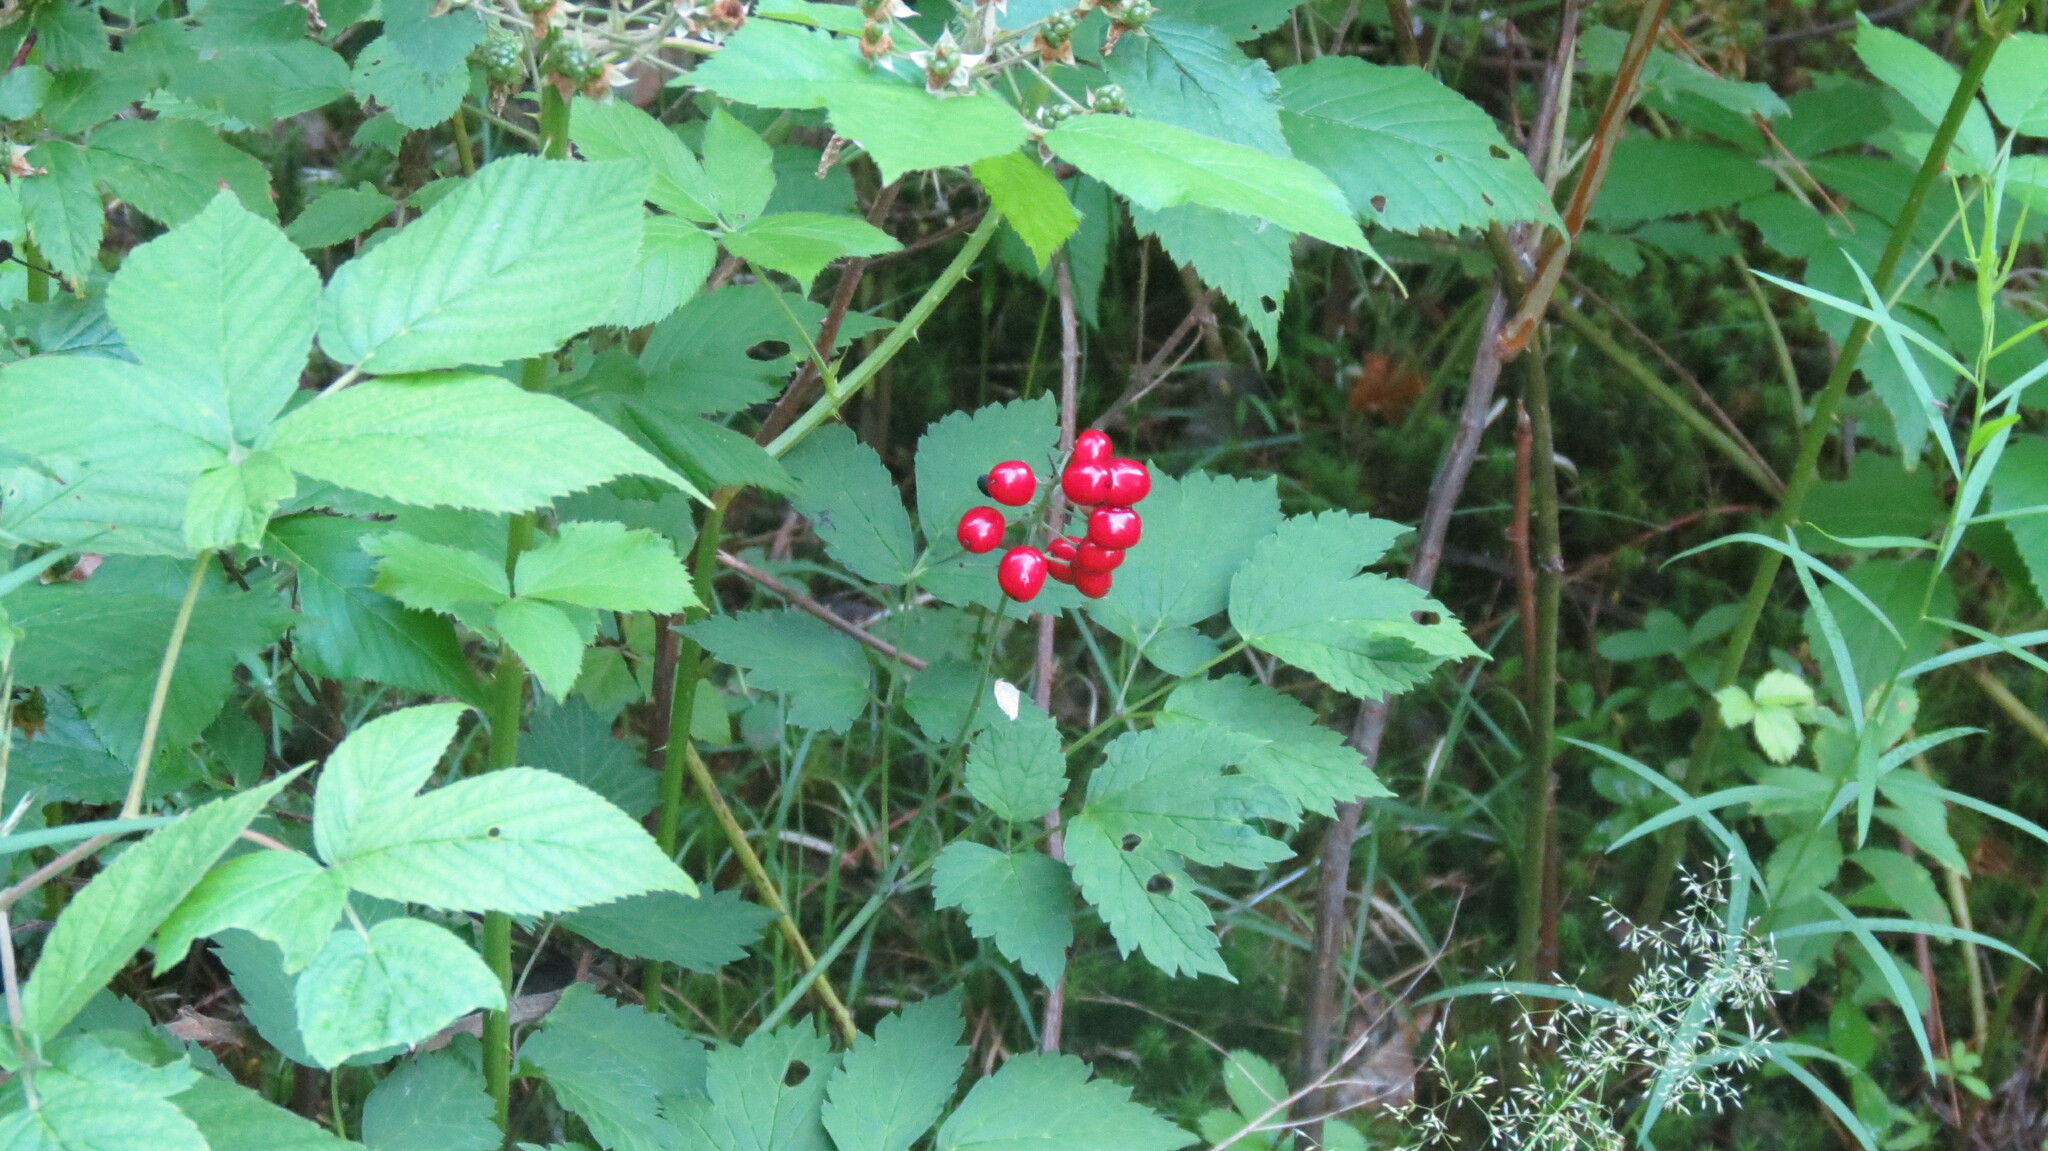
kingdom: Plantae
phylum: Tracheophyta
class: Magnoliopsida
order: Ranunculales
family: Ranunculaceae
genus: Actaea
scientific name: Actaea rubra
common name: Red baneberry
